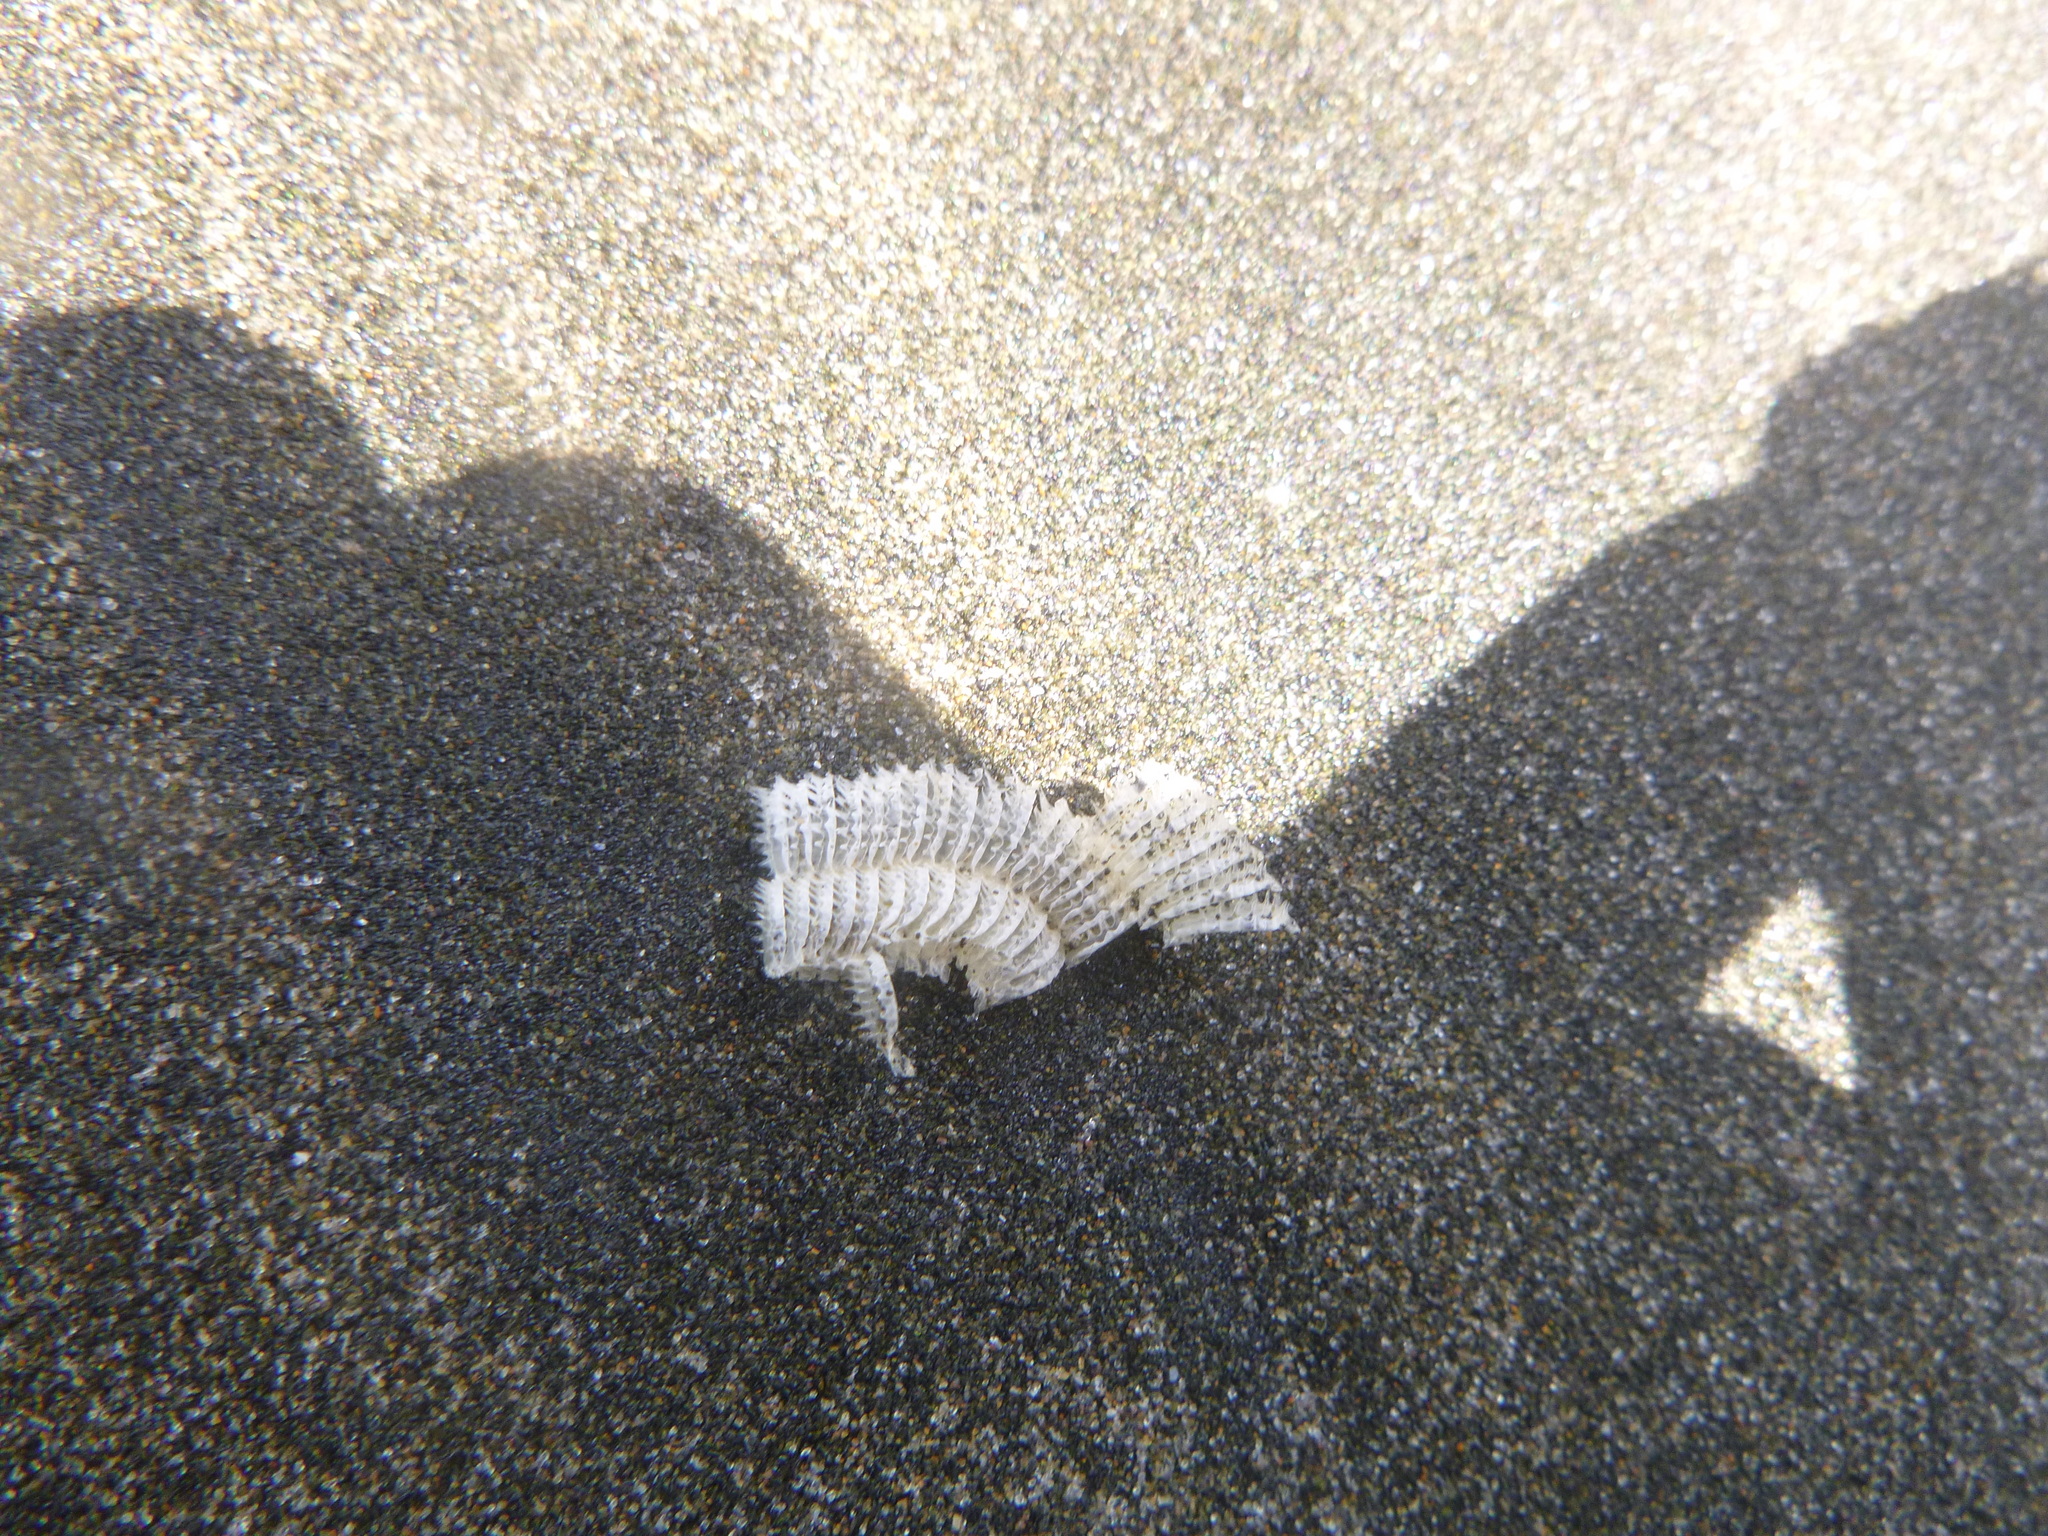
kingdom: Animalia
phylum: Mollusca
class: Gastropoda
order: Neogastropoda
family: Muricidae
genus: Poirieria
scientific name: Poirieria zelandica
